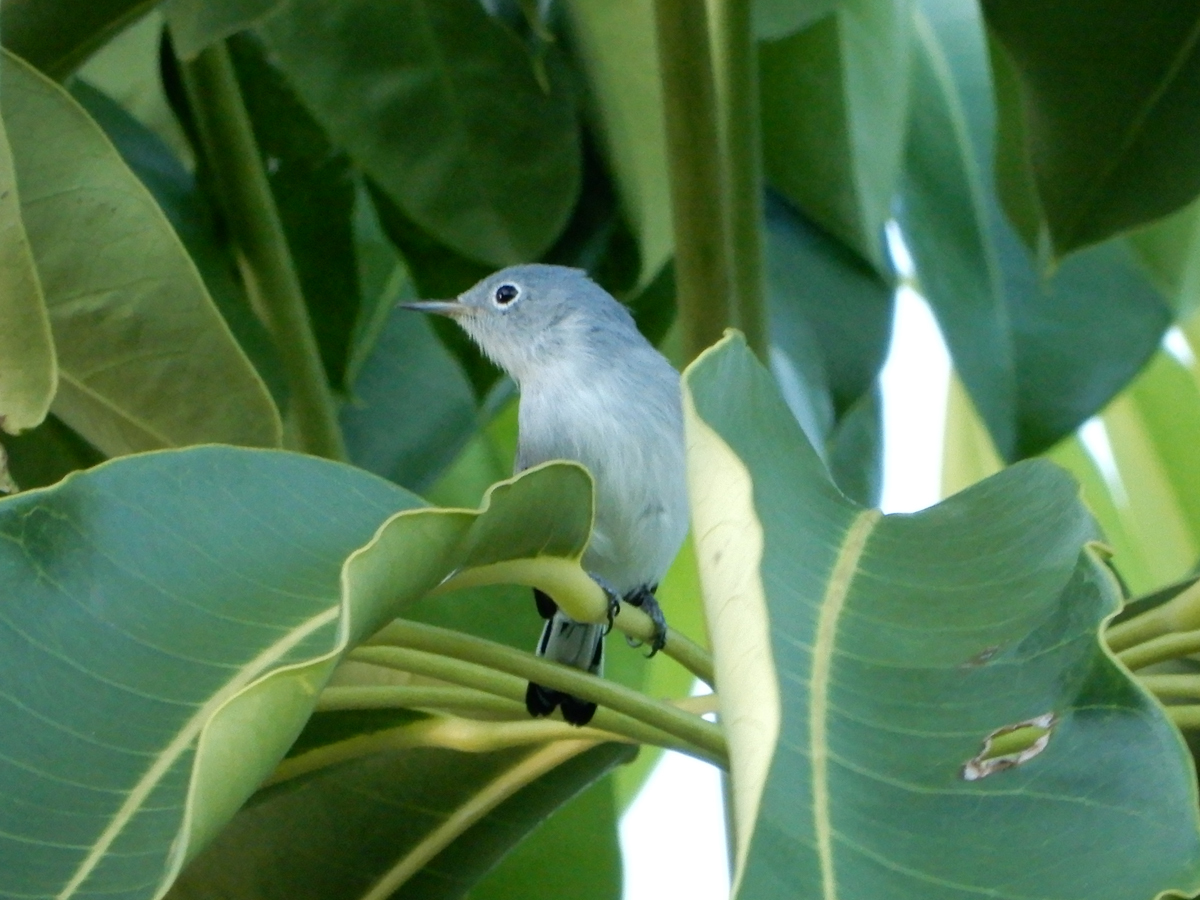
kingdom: Animalia
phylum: Chordata
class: Aves
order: Passeriformes
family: Polioptilidae
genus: Polioptila
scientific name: Polioptila caerulea
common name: Blue-gray gnatcatcher
